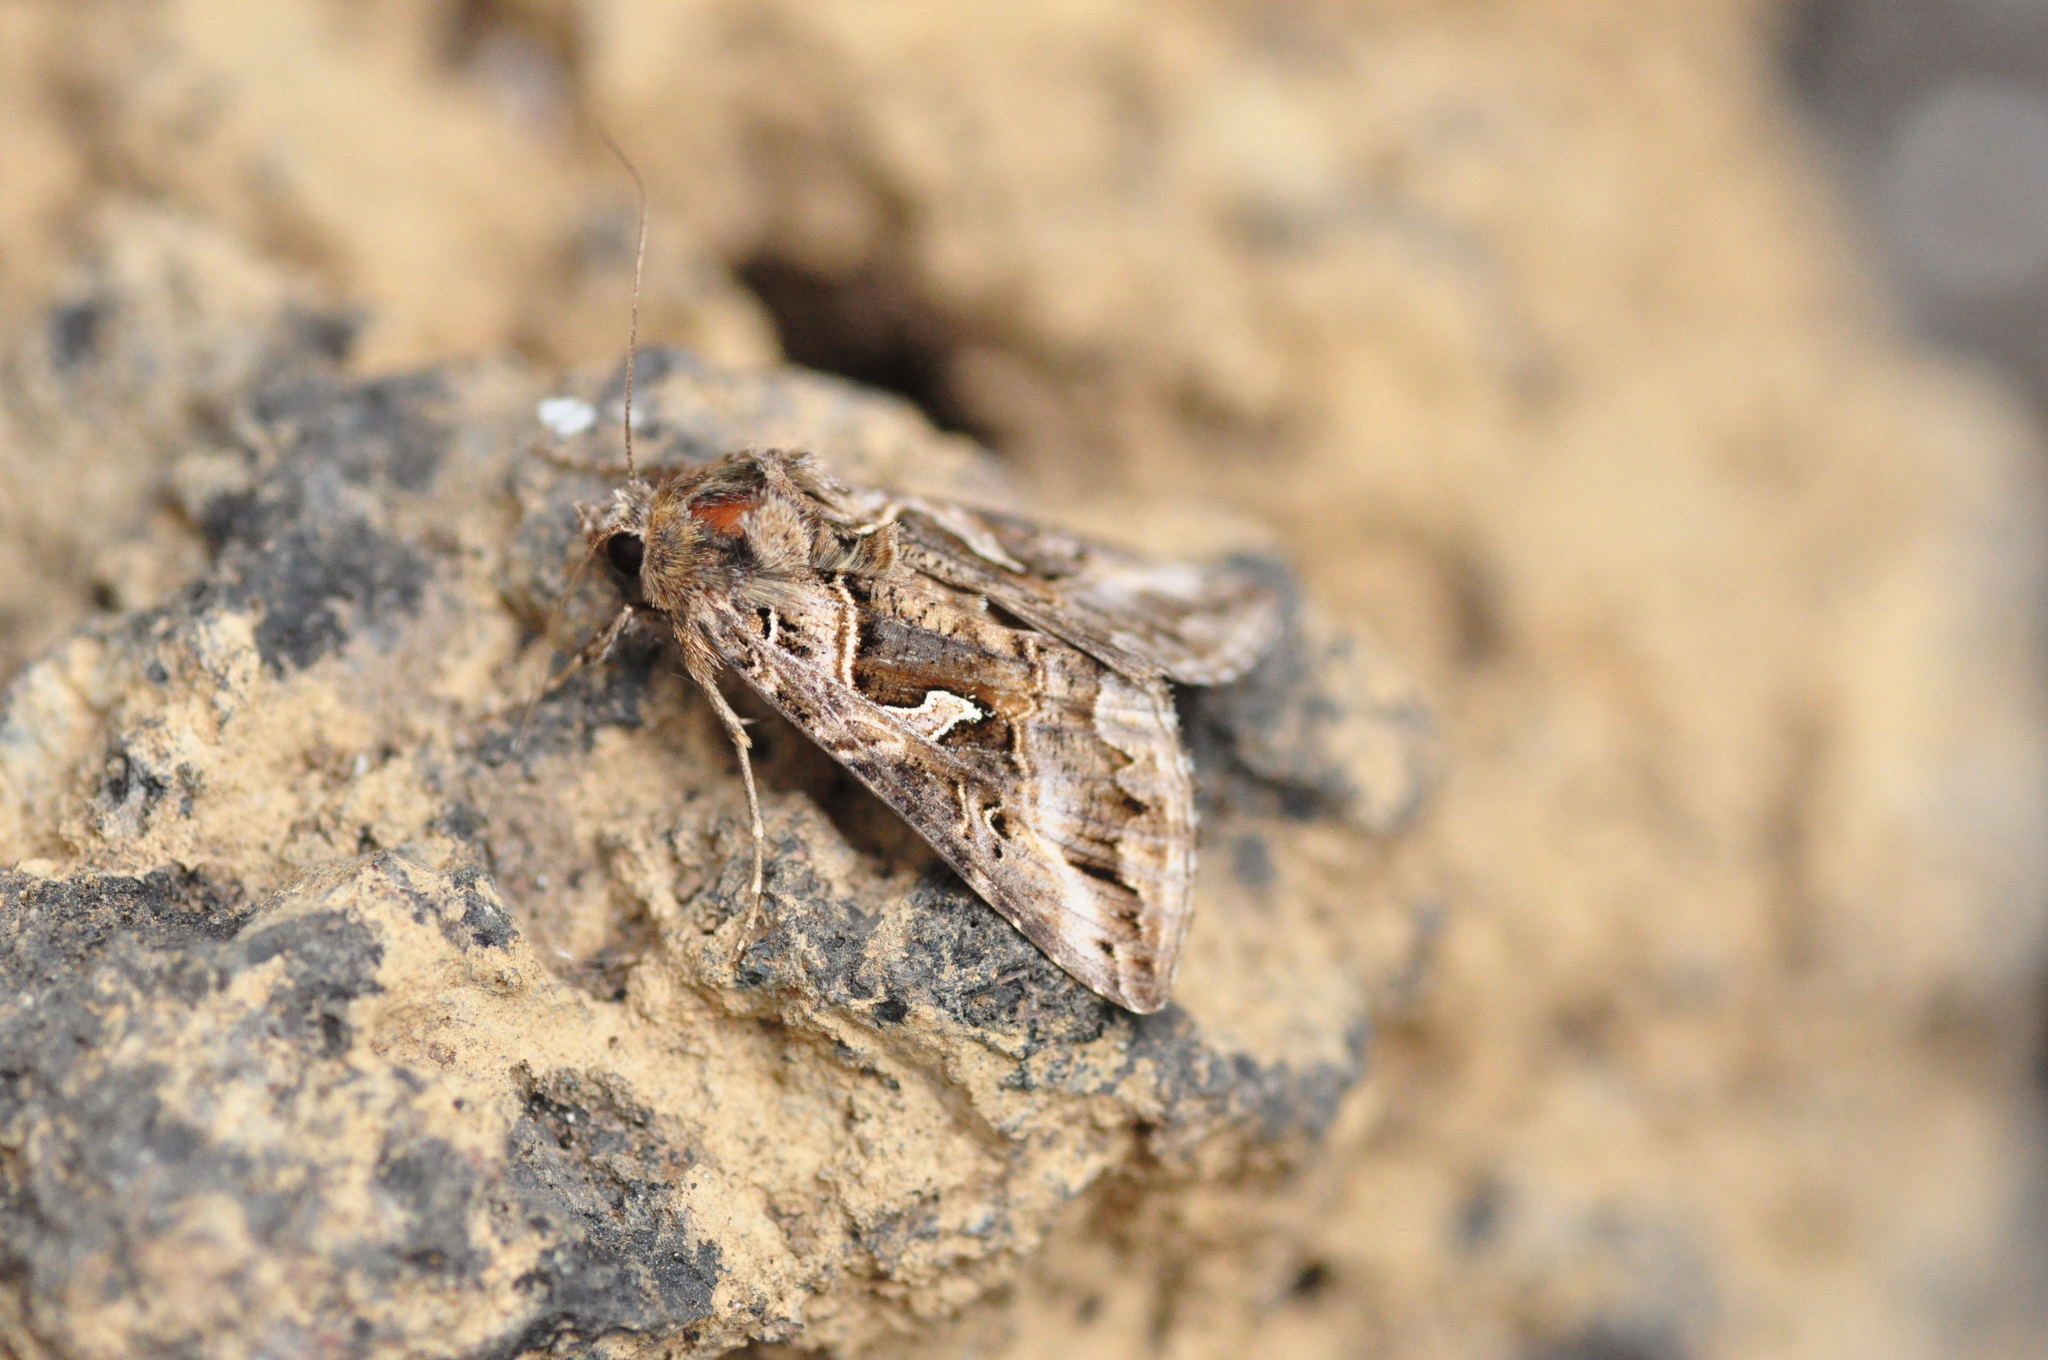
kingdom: Animalia
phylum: Arthropoda
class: Insecta
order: Lepidoptera
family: Noctuidae
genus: Cornutiplusia
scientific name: Cornutiplusia circumflexa
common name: Yorkshire y
